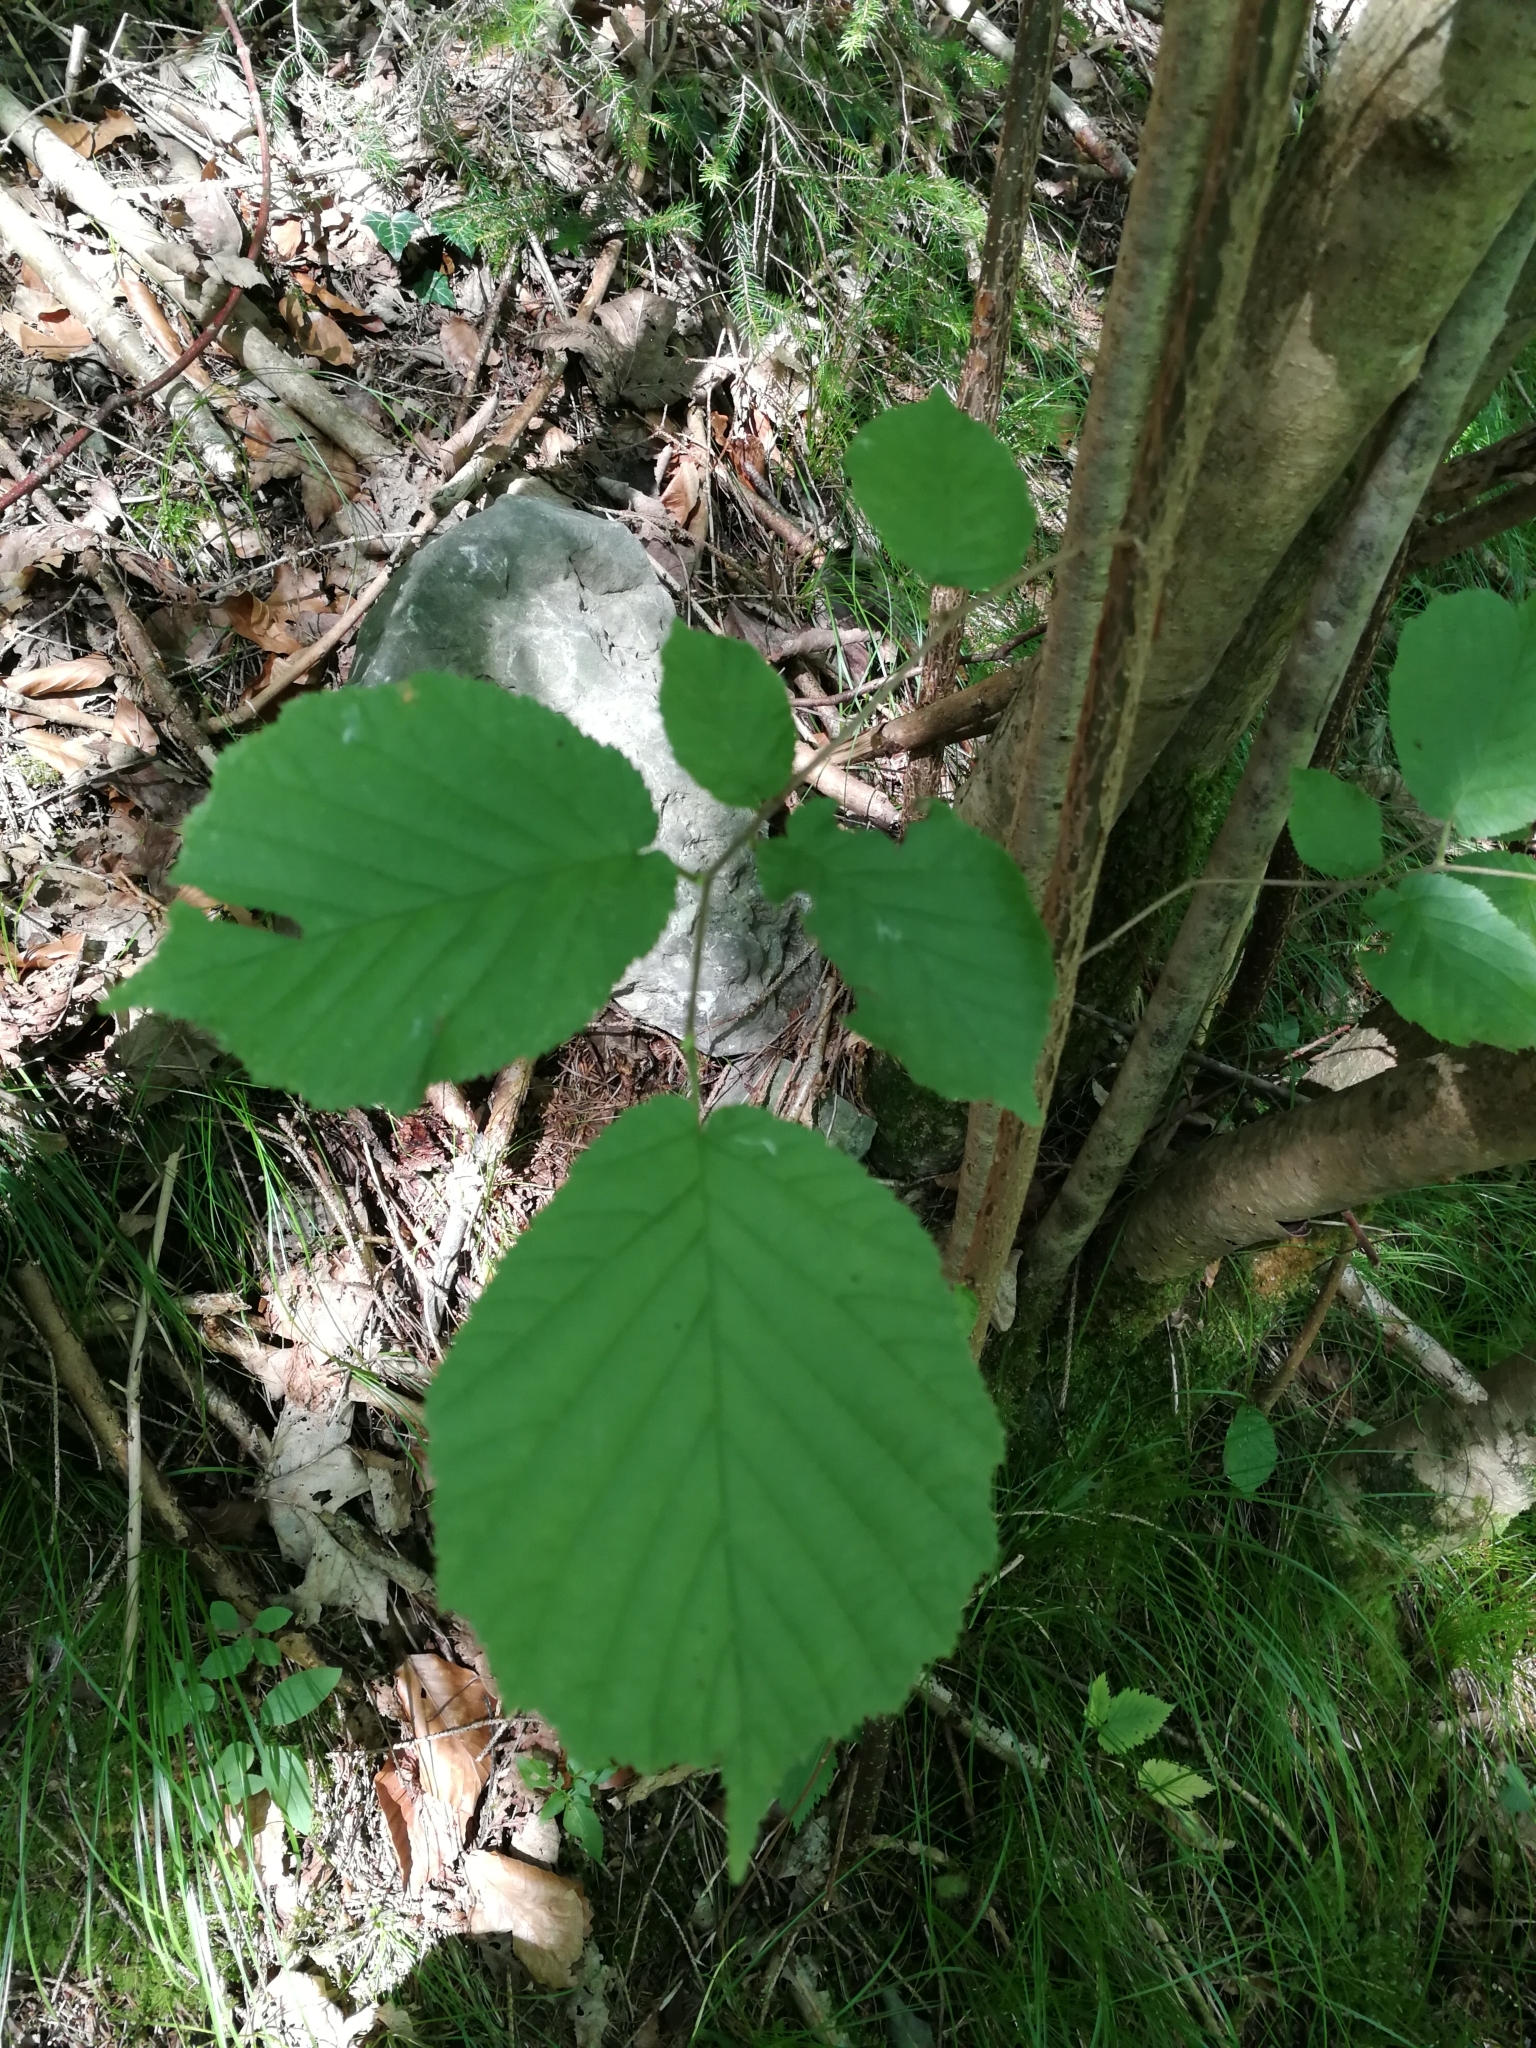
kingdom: Plantae
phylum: Tracheophyta
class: Magnoliopsida
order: Fagales
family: Betulaceae
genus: Corylus
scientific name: Corylus avellana
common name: European hazel
